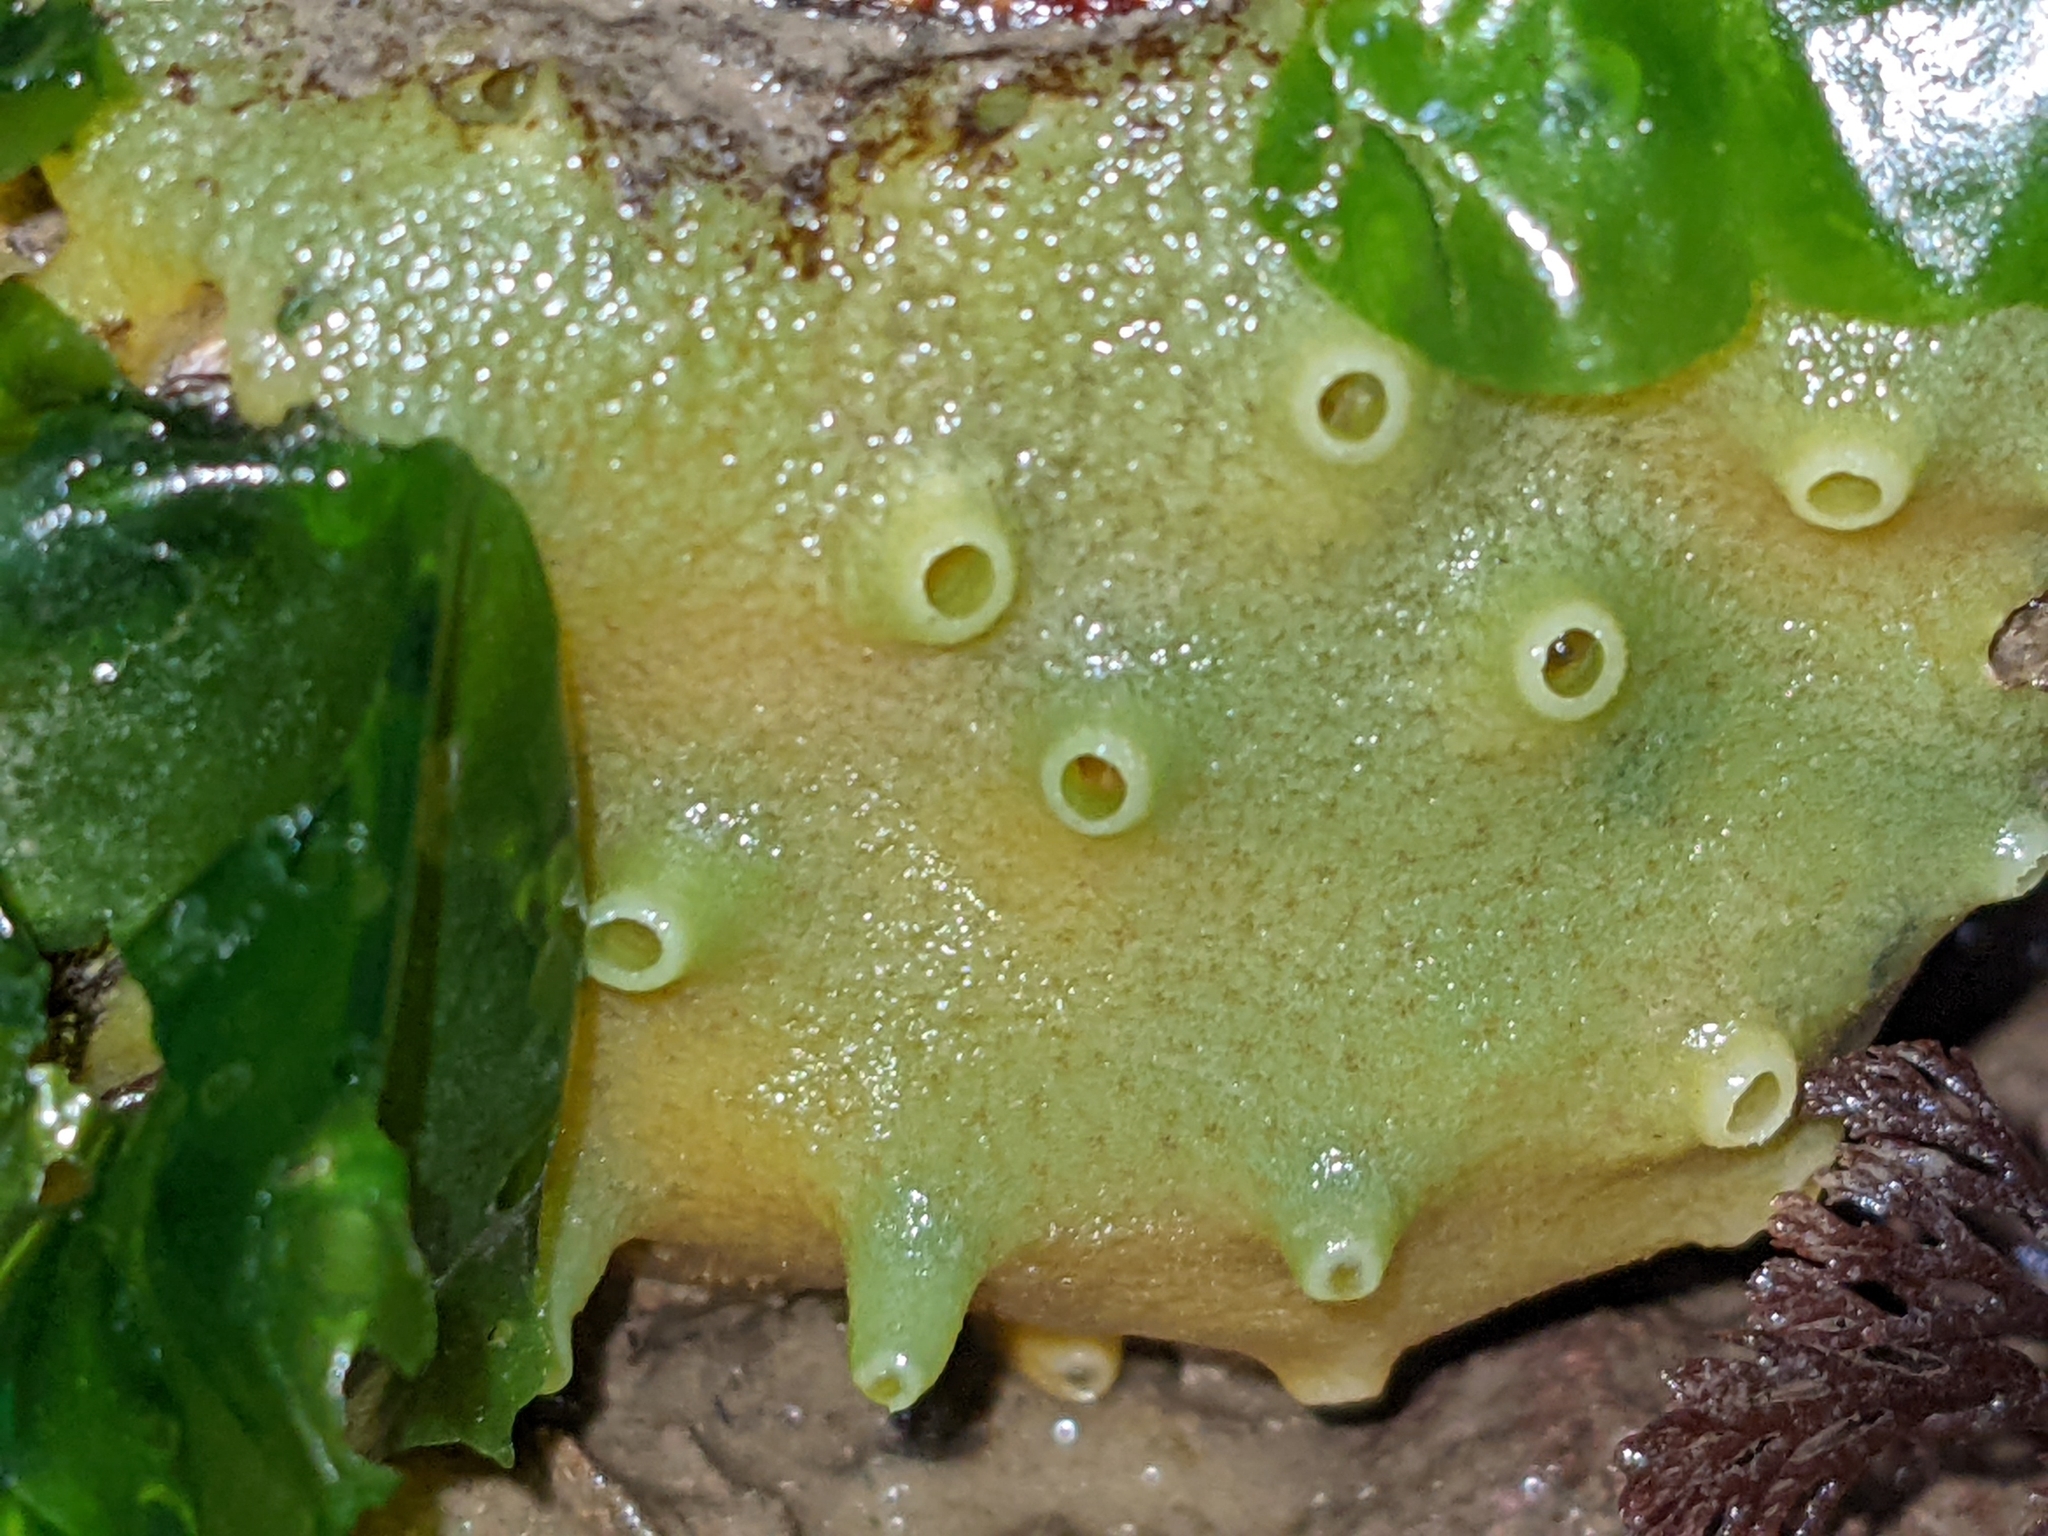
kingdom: Animalia
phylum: Porifera
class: Demospongiae
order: Suberitida
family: Halichondriidae
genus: Halichondria
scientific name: Halichondria panicea
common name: Breadcrumb sponge
